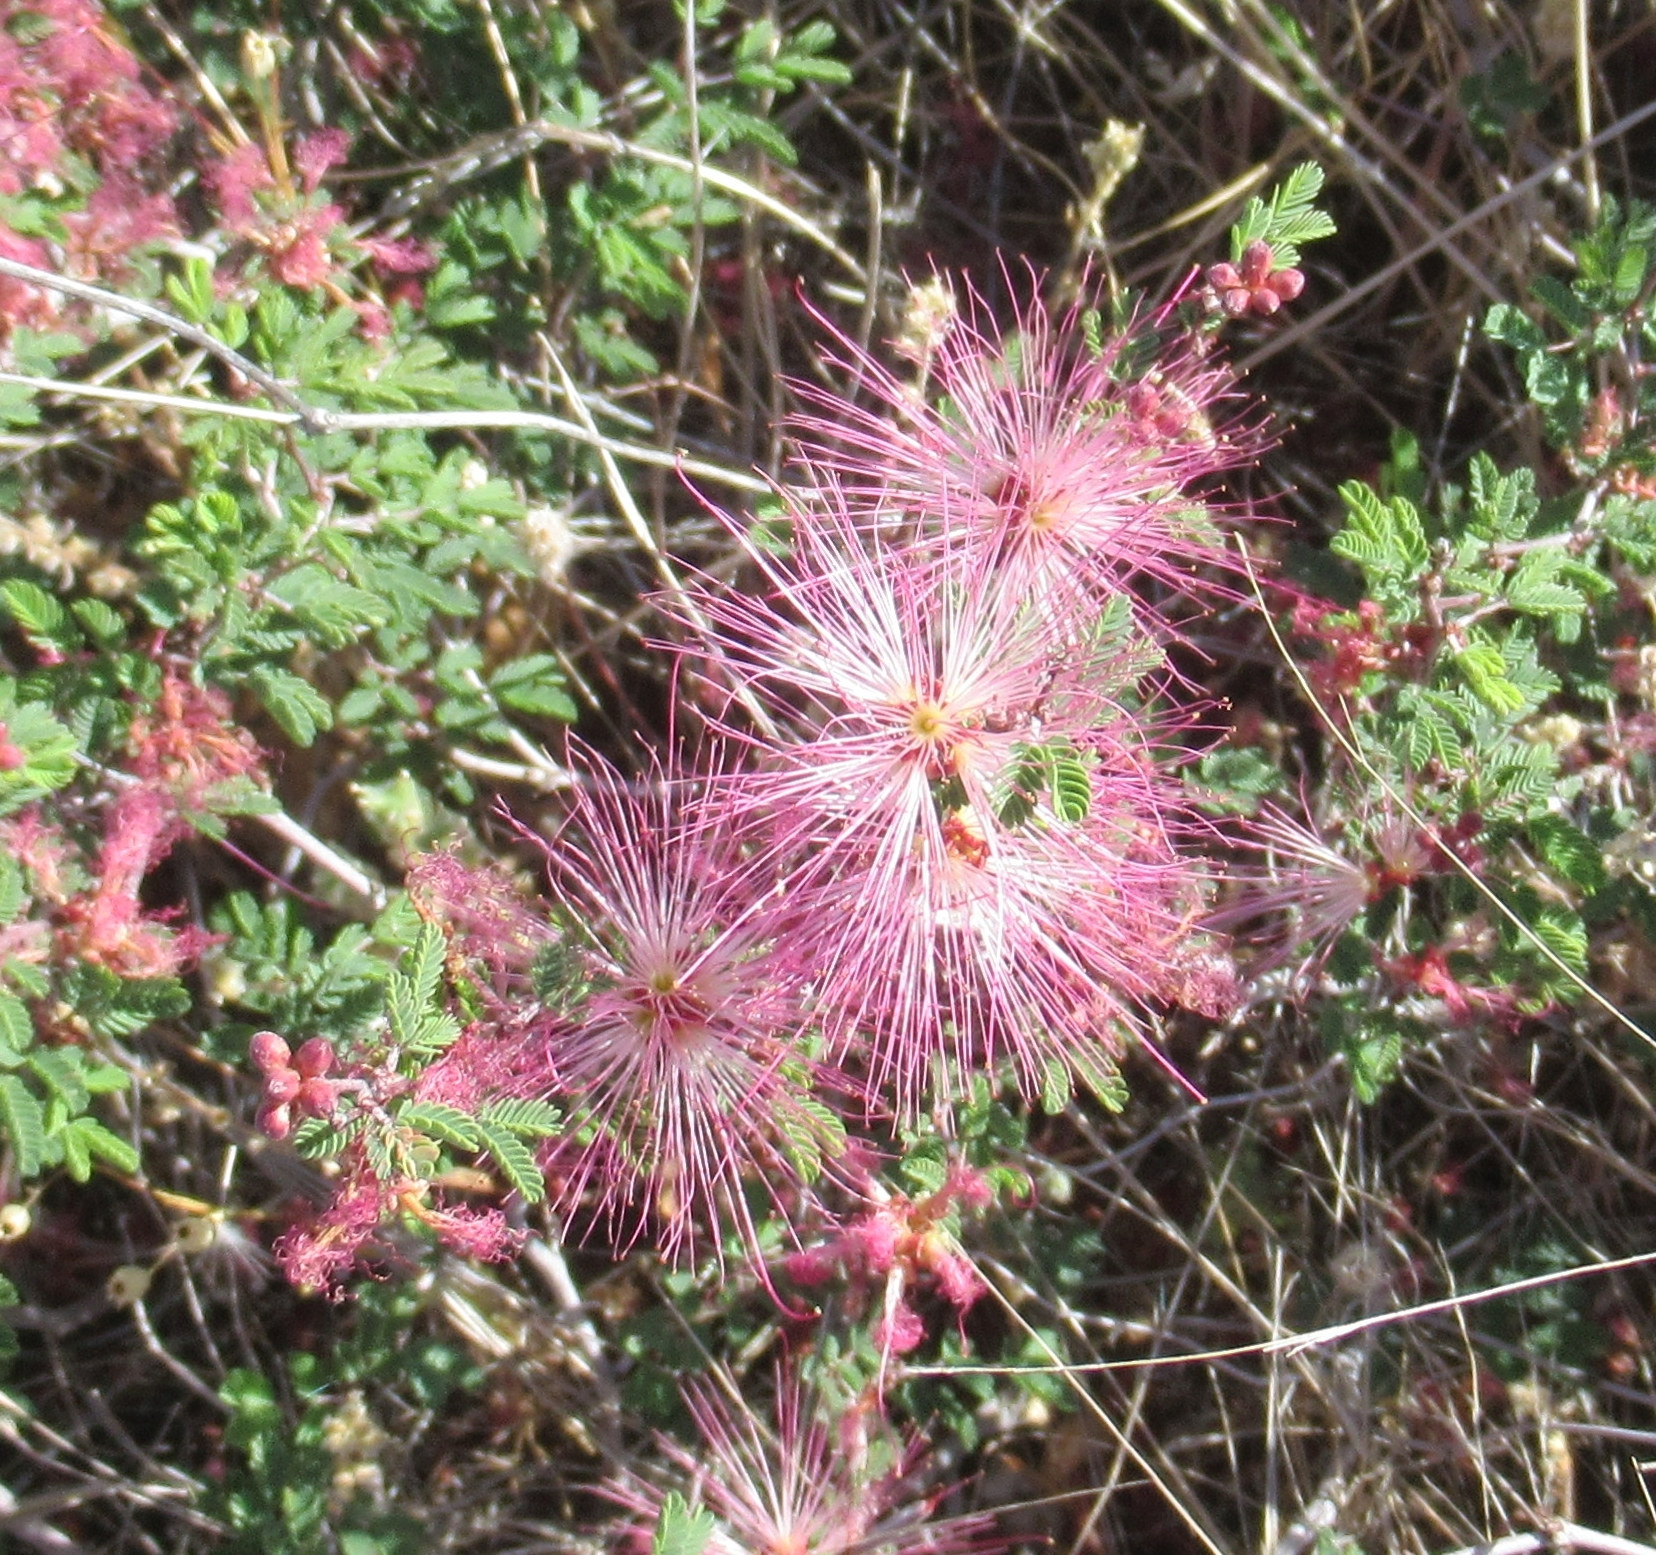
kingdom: Plantae
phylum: Tracheophyta
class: Magnoliopsida
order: Fabales
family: Fabaceae
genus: Calliandra
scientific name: Calliandra eriophylla
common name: Fairy-duster
